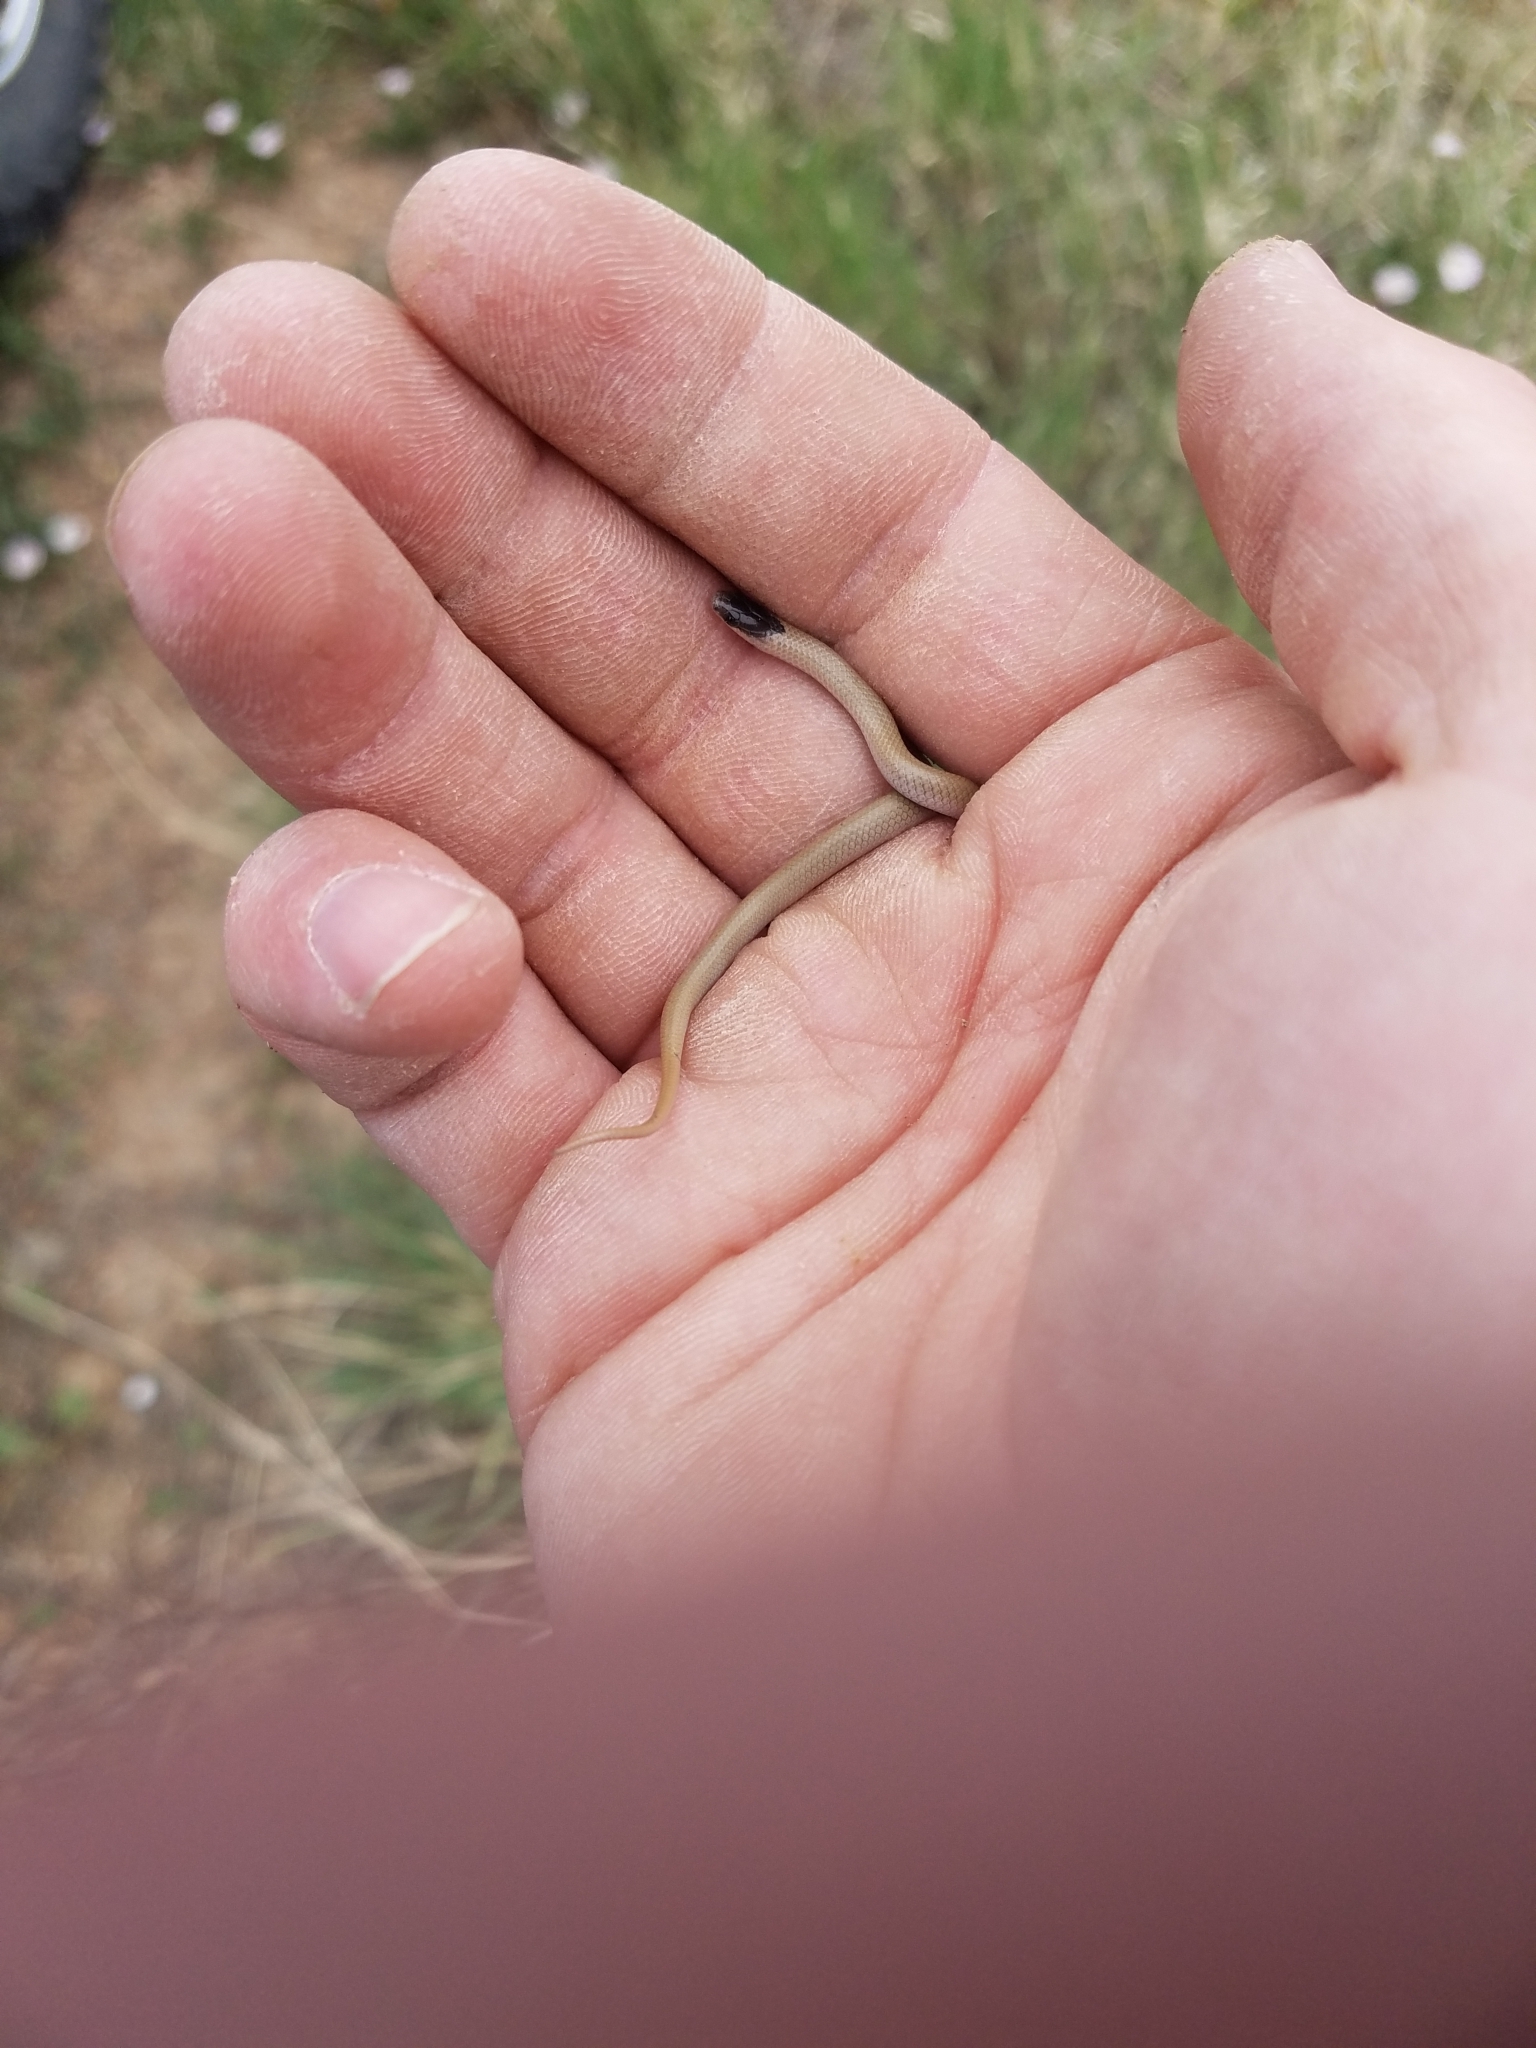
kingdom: Animalia
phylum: Chordata
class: Squamata
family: Colubridae
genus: Tantilla
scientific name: Tantilla nigriceps
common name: Plains blackhead snake
